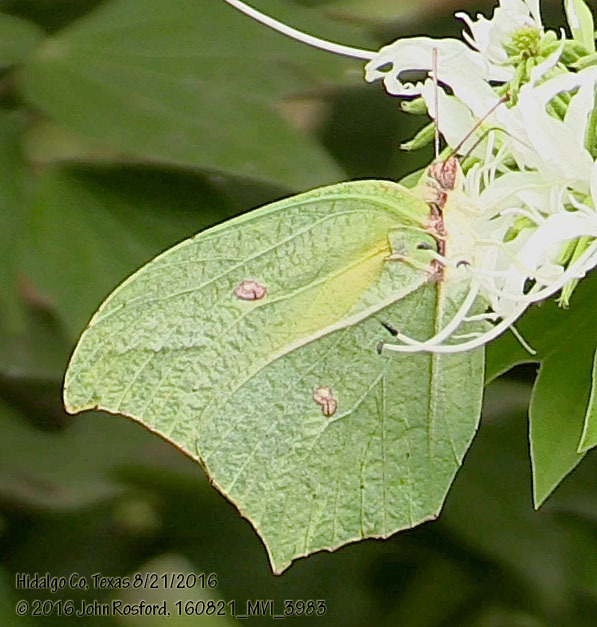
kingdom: Animalia
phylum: Arthropoda
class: Insecta
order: Lepidoptera
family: Pieridae
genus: Anteos
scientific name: Anteos maerula
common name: Angled sulphur
